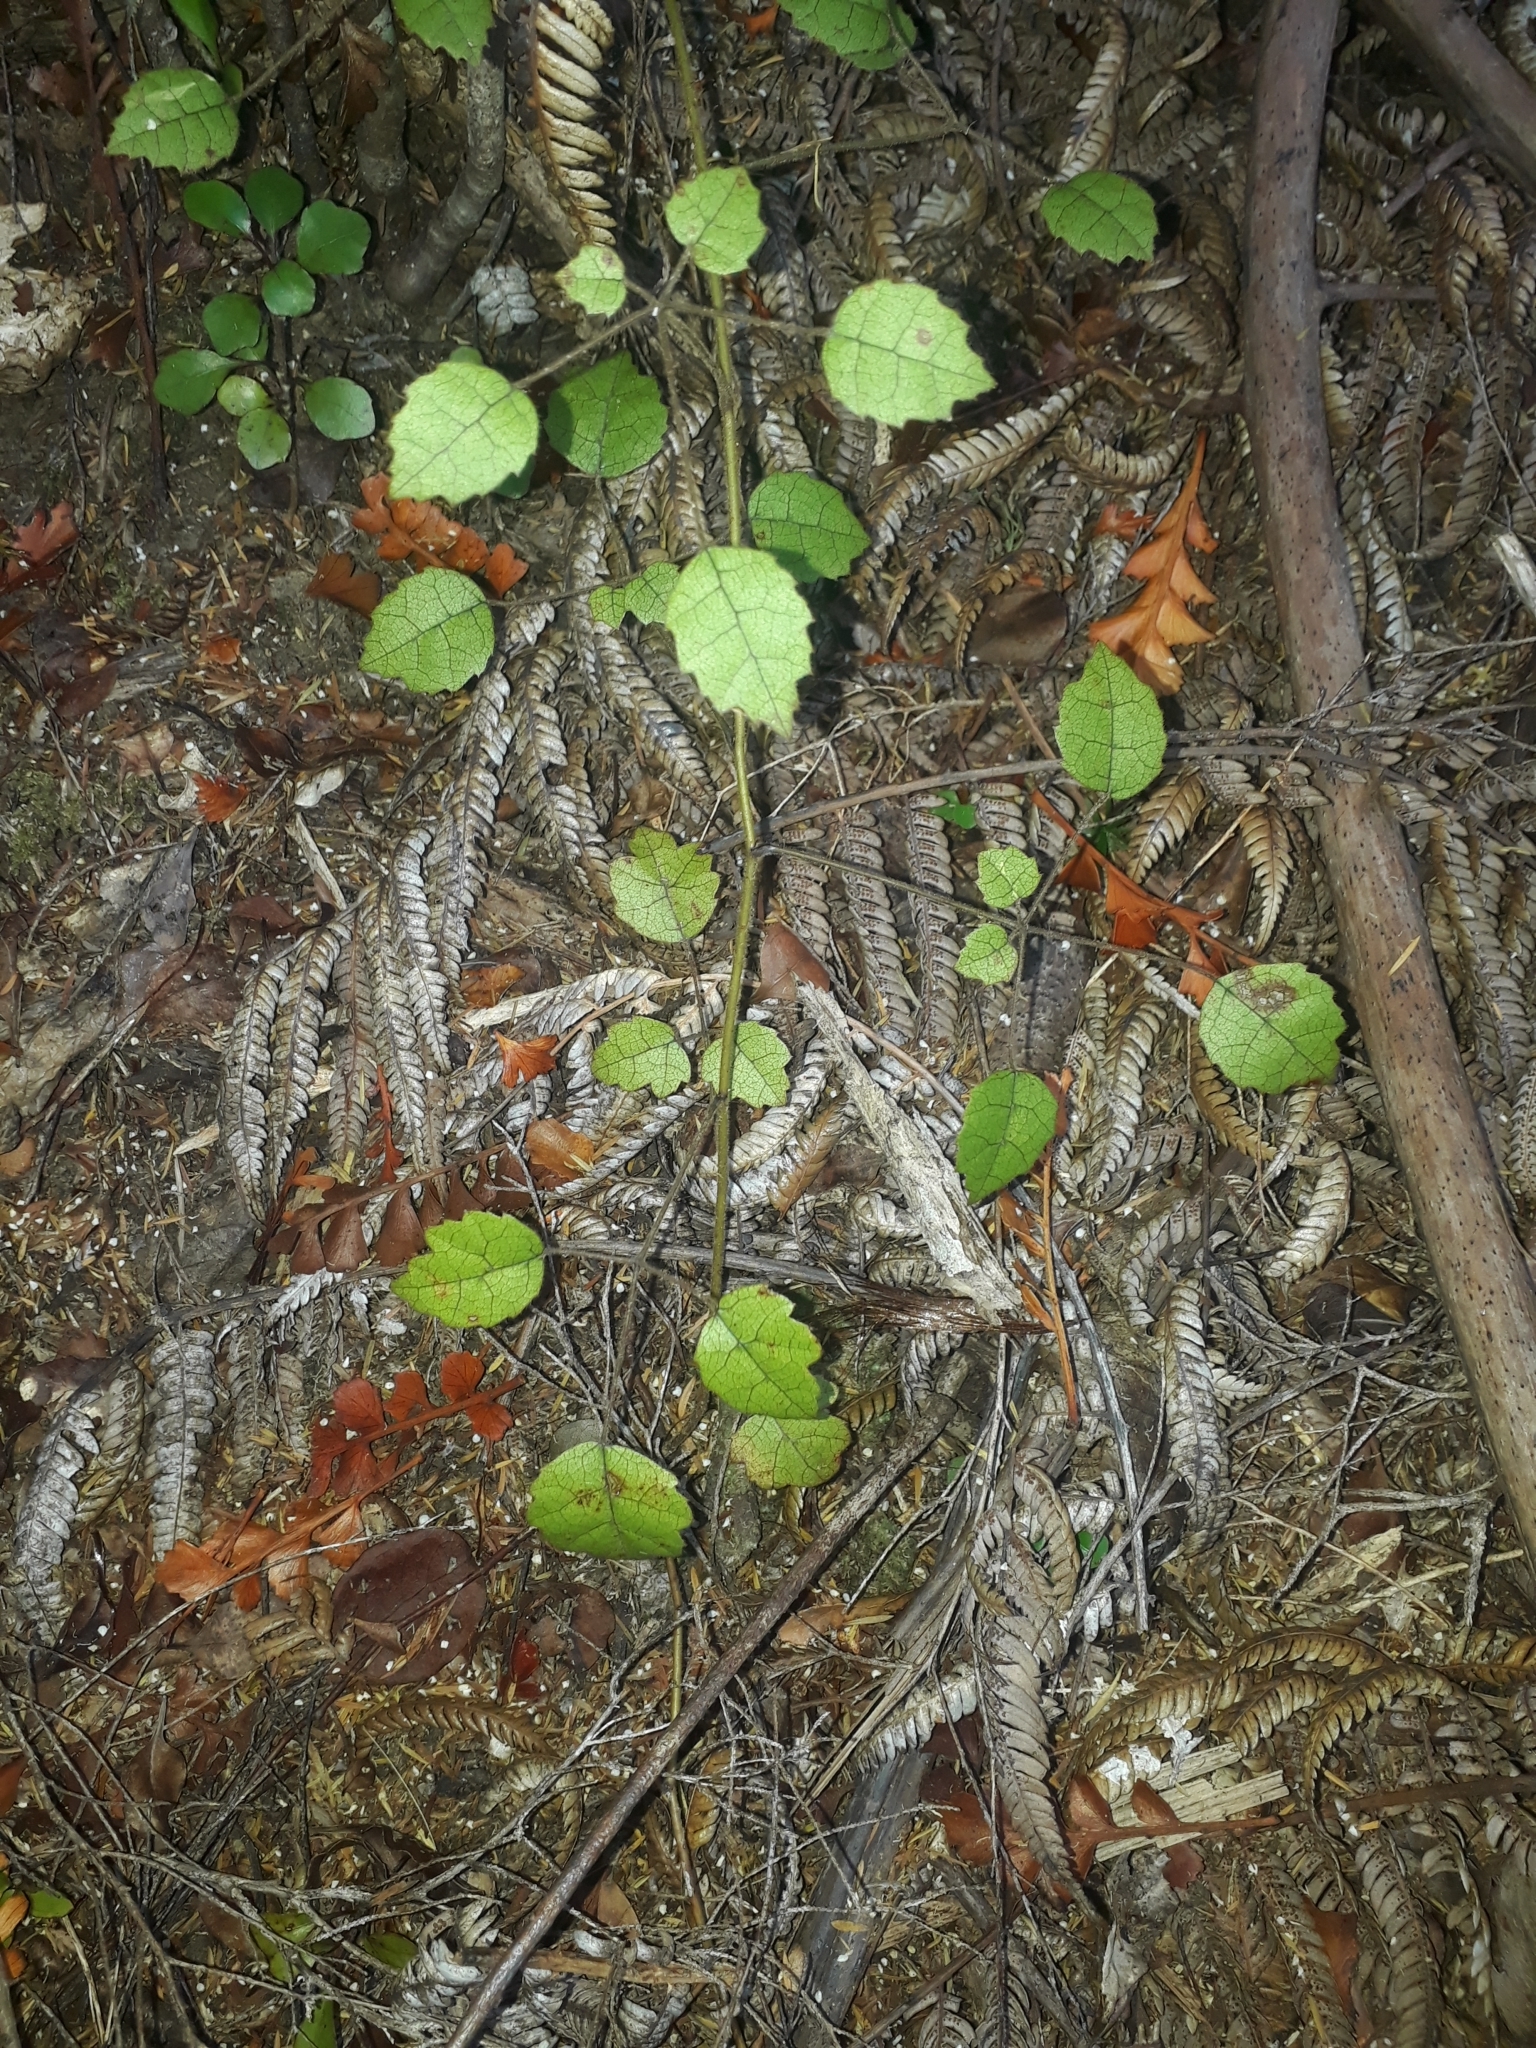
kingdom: Plantae
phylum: Tracheophyta
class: Magnoliopsida
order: Rosales
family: Rosaceae
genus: Rubus
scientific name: Rubus australis
